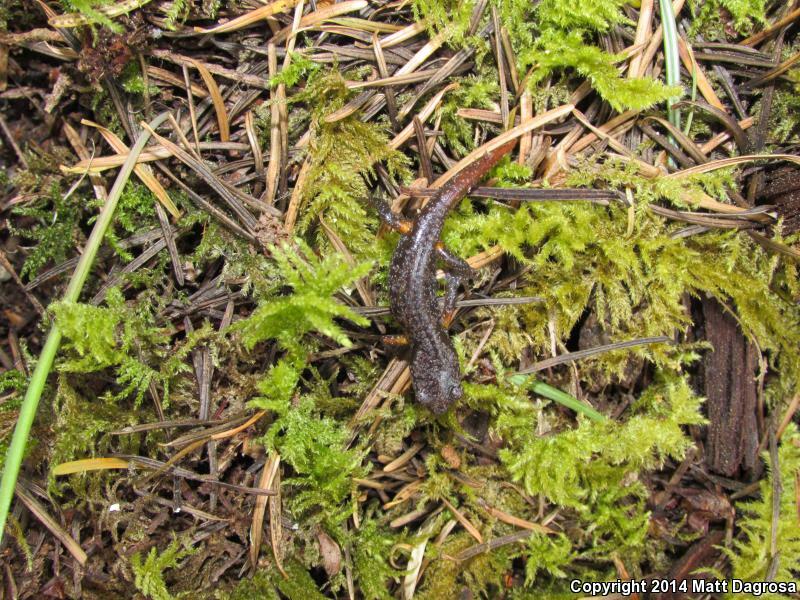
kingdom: Animalia
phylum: Chordata
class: Amphibia
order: Caudata
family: Plethodontidae
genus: Ensatina
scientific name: Ensatina eschscholtzii
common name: Ensatina
